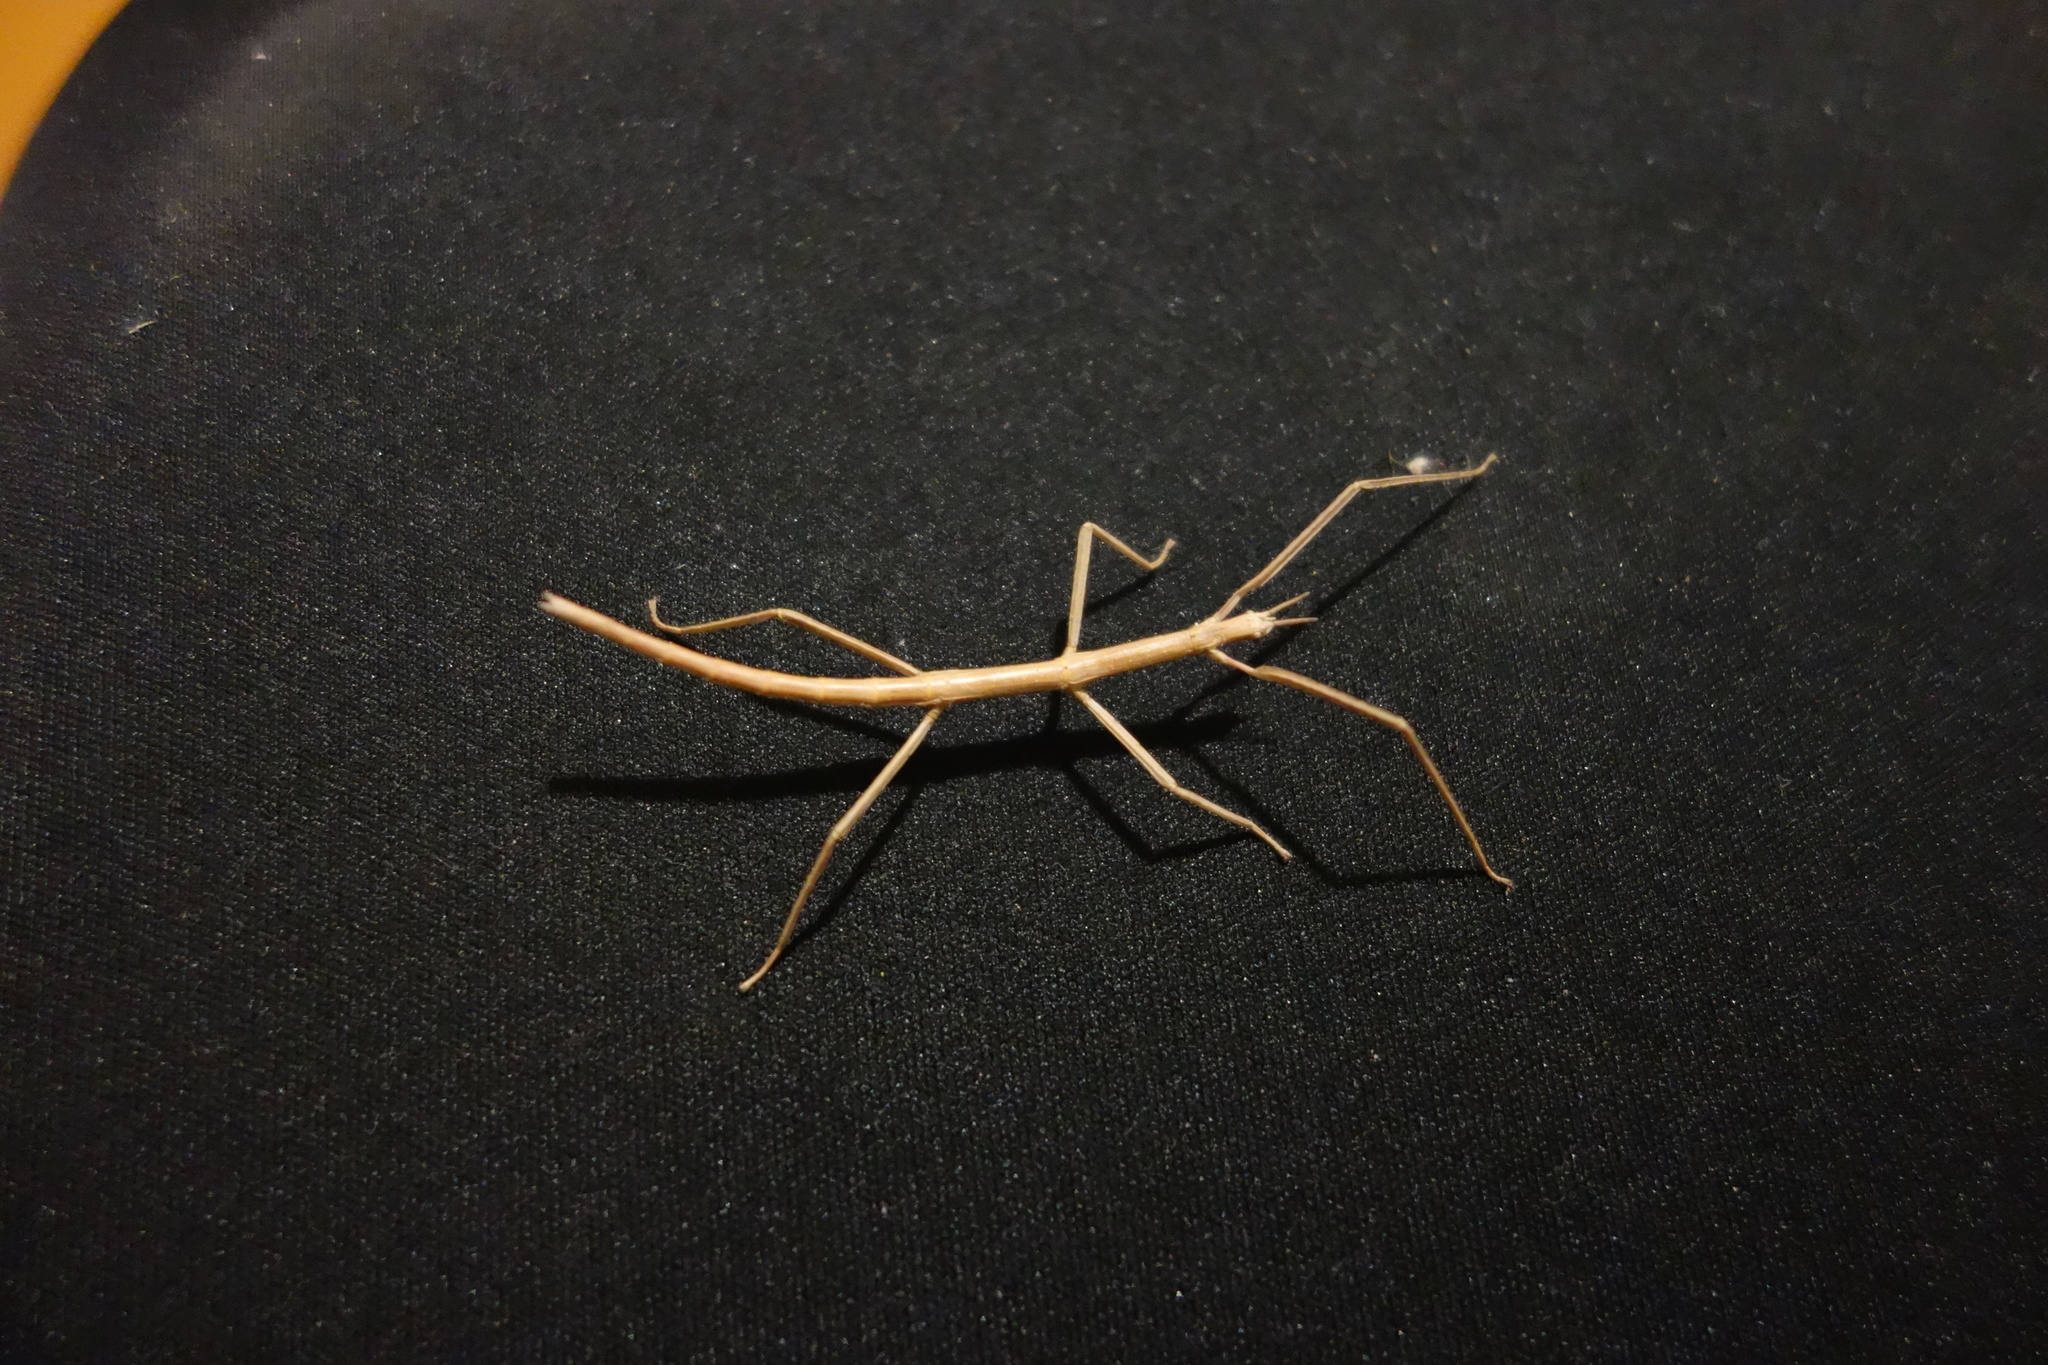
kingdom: Animalia
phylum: Arthropoda
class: Insecta
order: Phasmida
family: Bacillidae
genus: Bacillus
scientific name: Bacillus rossius
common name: Corsican stick-insect
